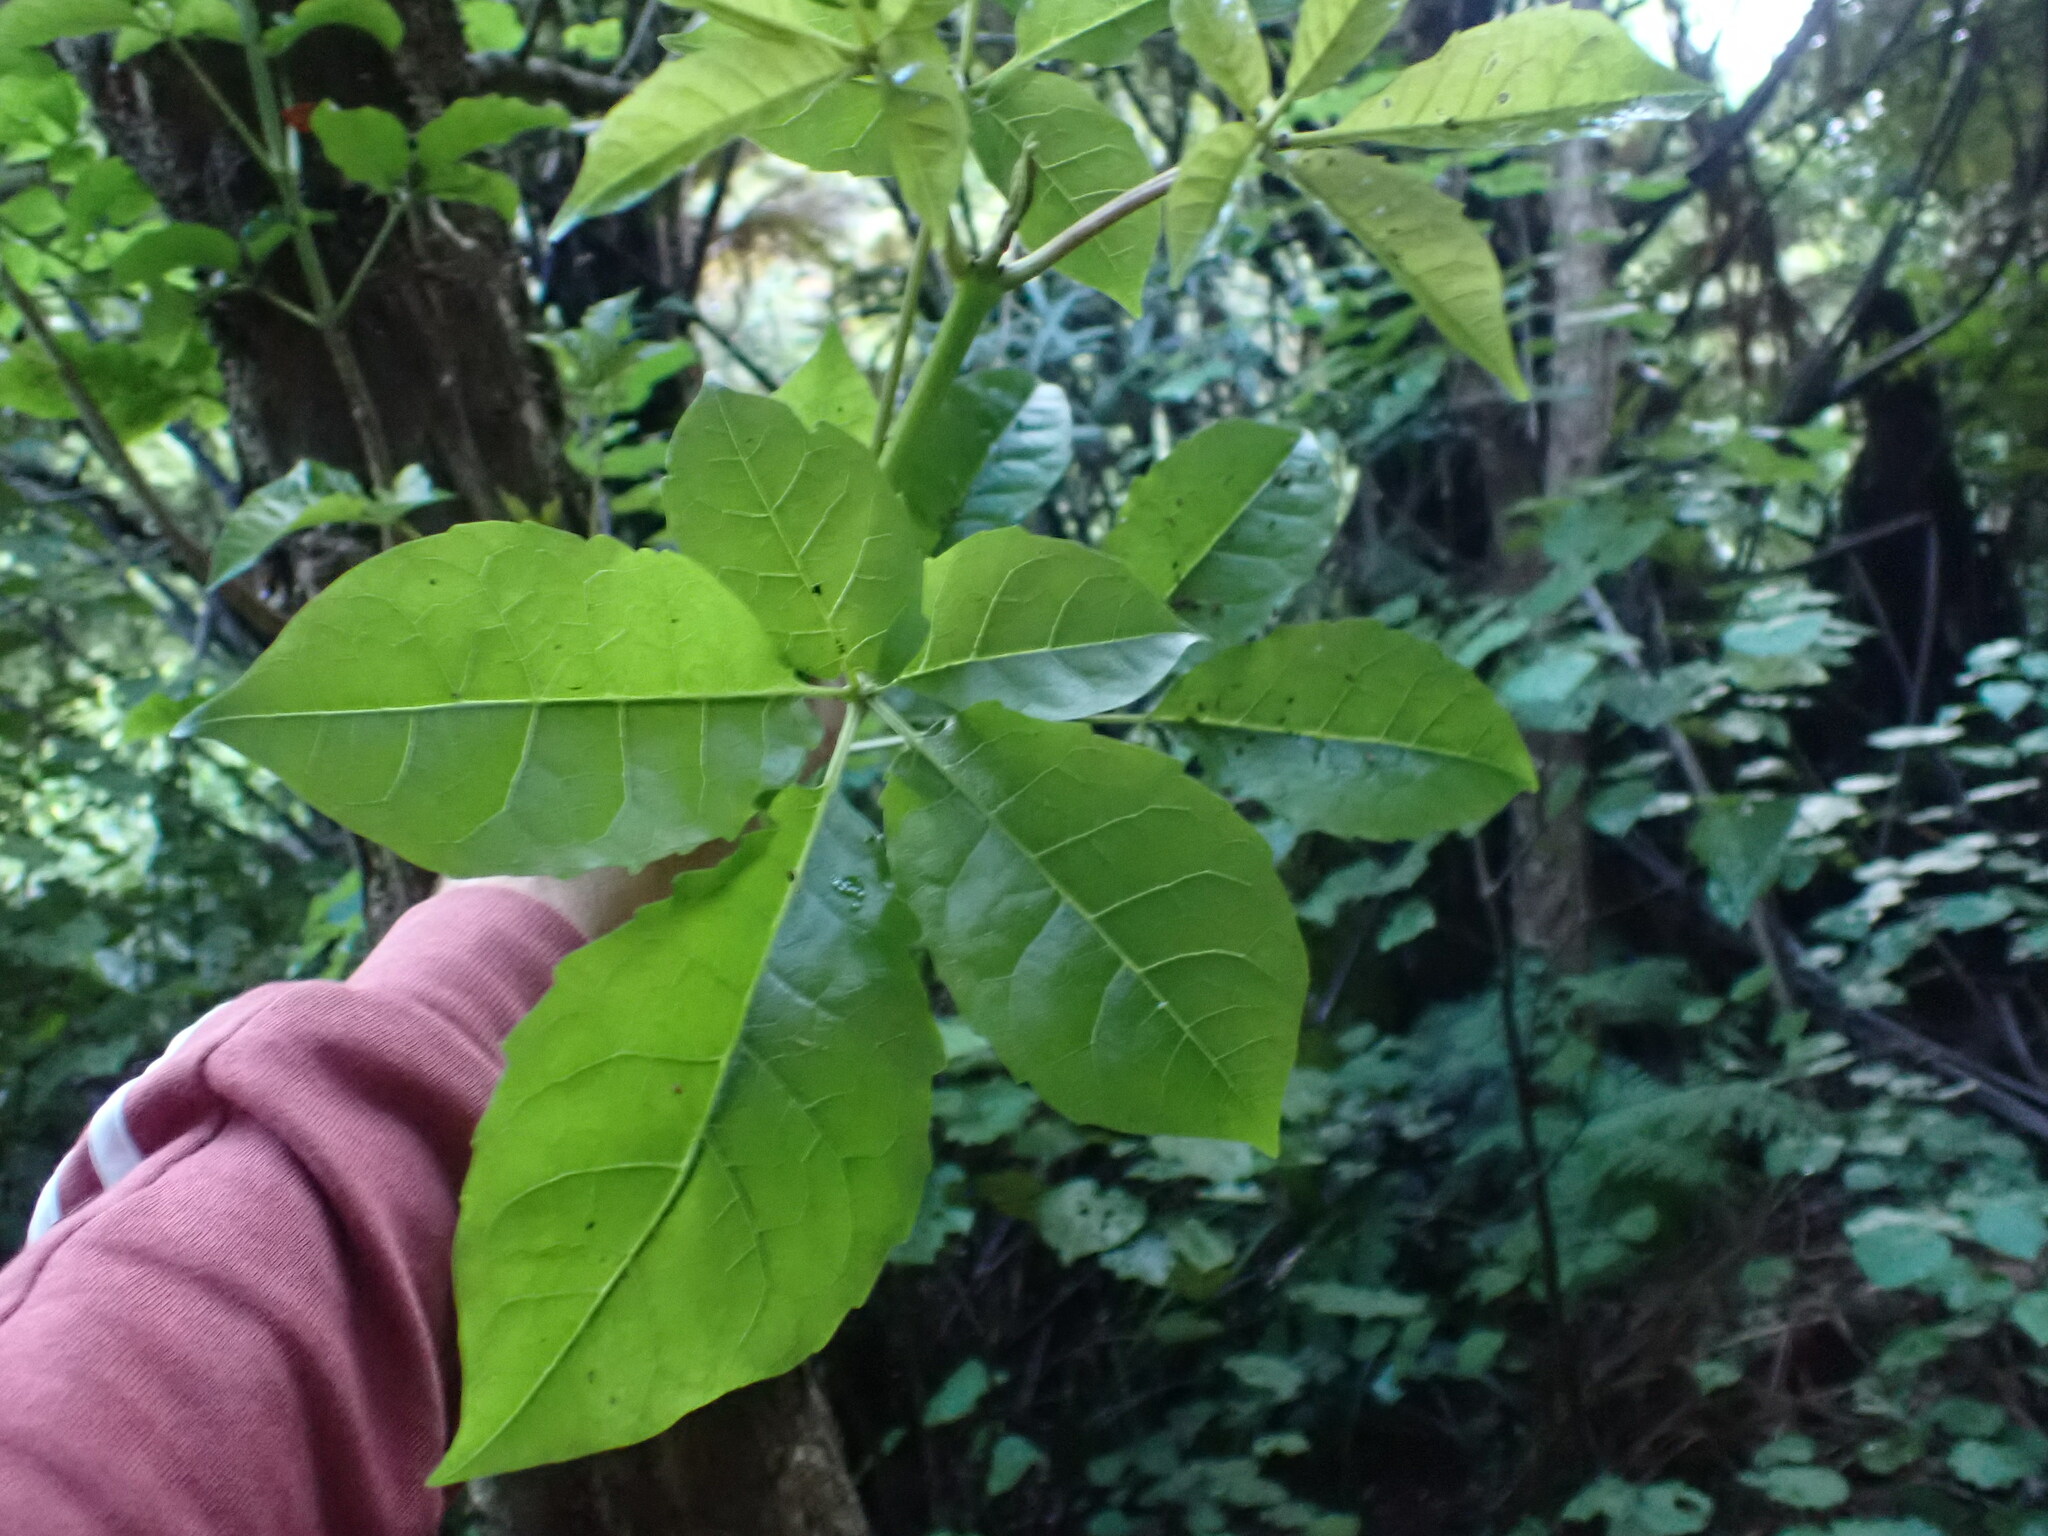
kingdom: Plantae
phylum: Tracheophyta
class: Magnoliopsida
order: Lamiales
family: Lamiaceae
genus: Vitex
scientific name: Vitex lucens
